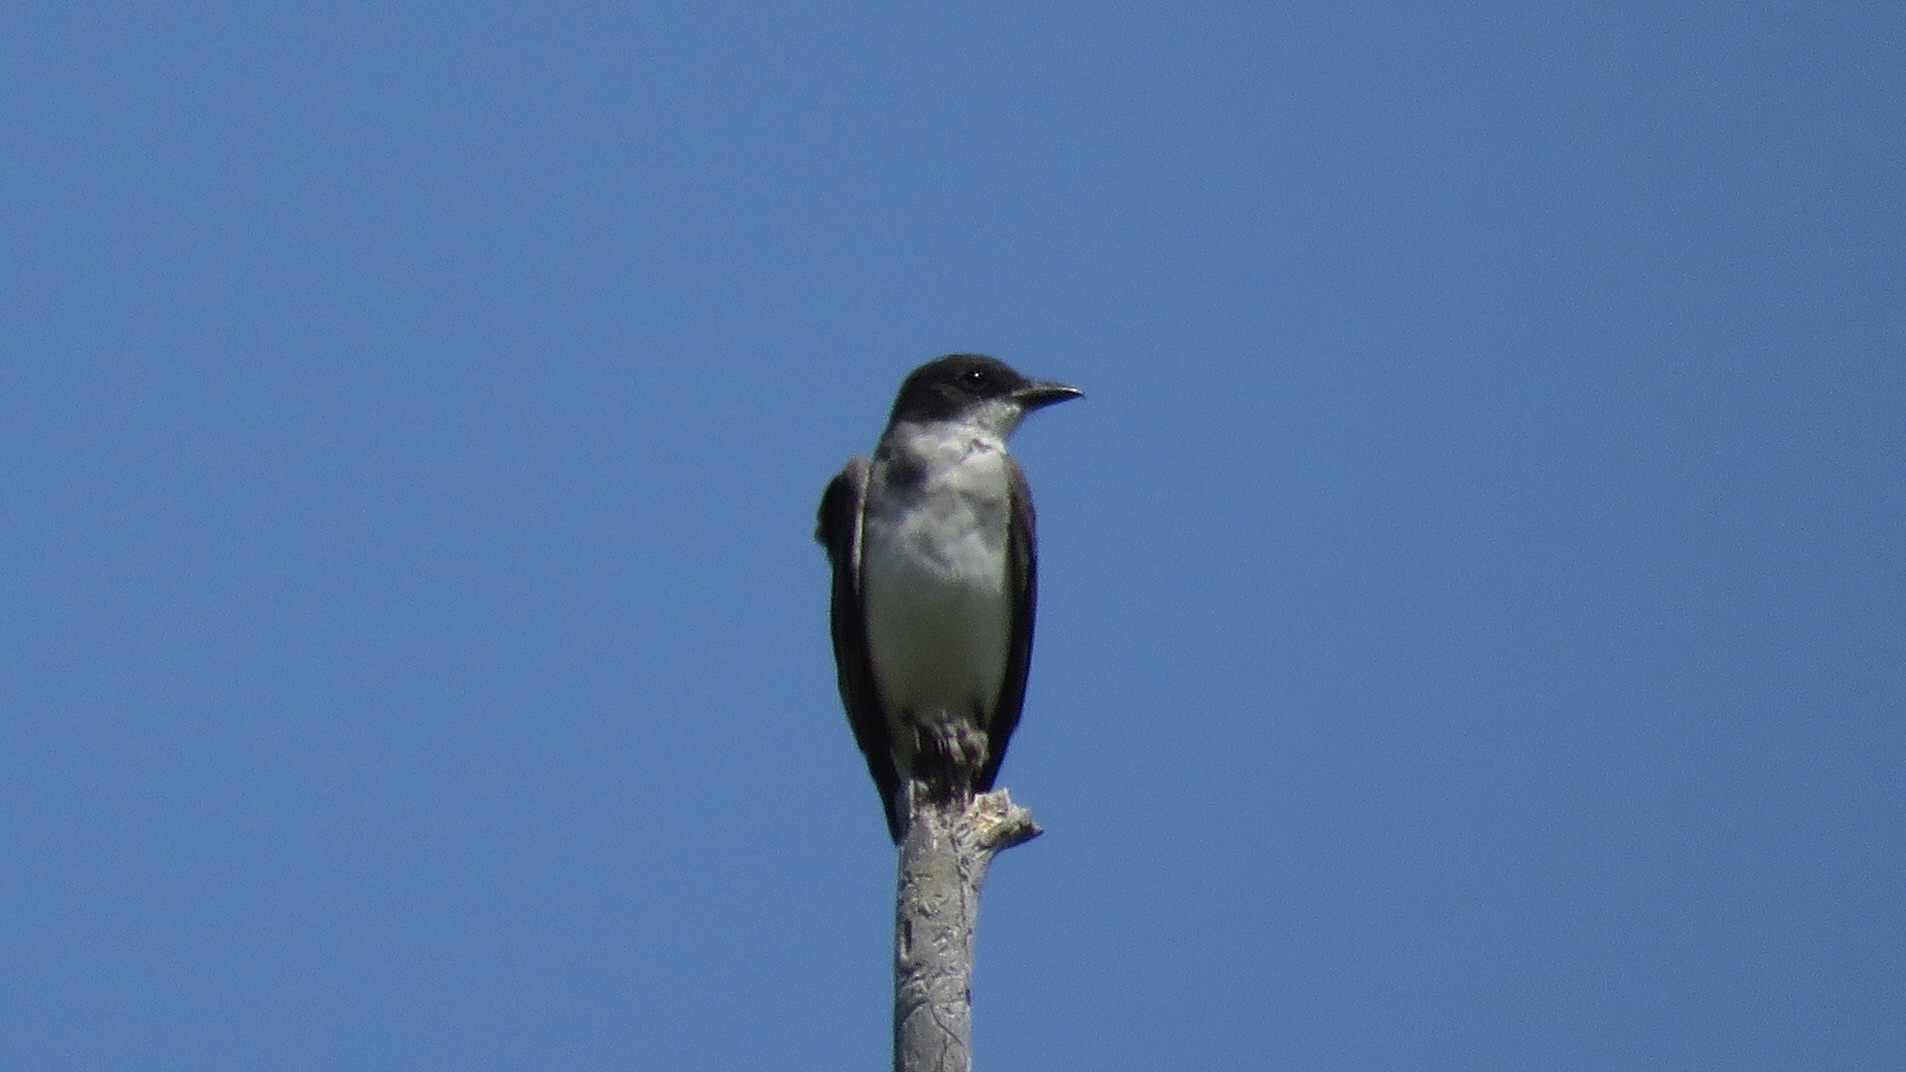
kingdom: Animalia
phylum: Chordata
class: Aves
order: Passeriformes
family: Tyrannidae
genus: Tyrannus
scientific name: Tyrannus tyrannus
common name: Eastern kingbird
